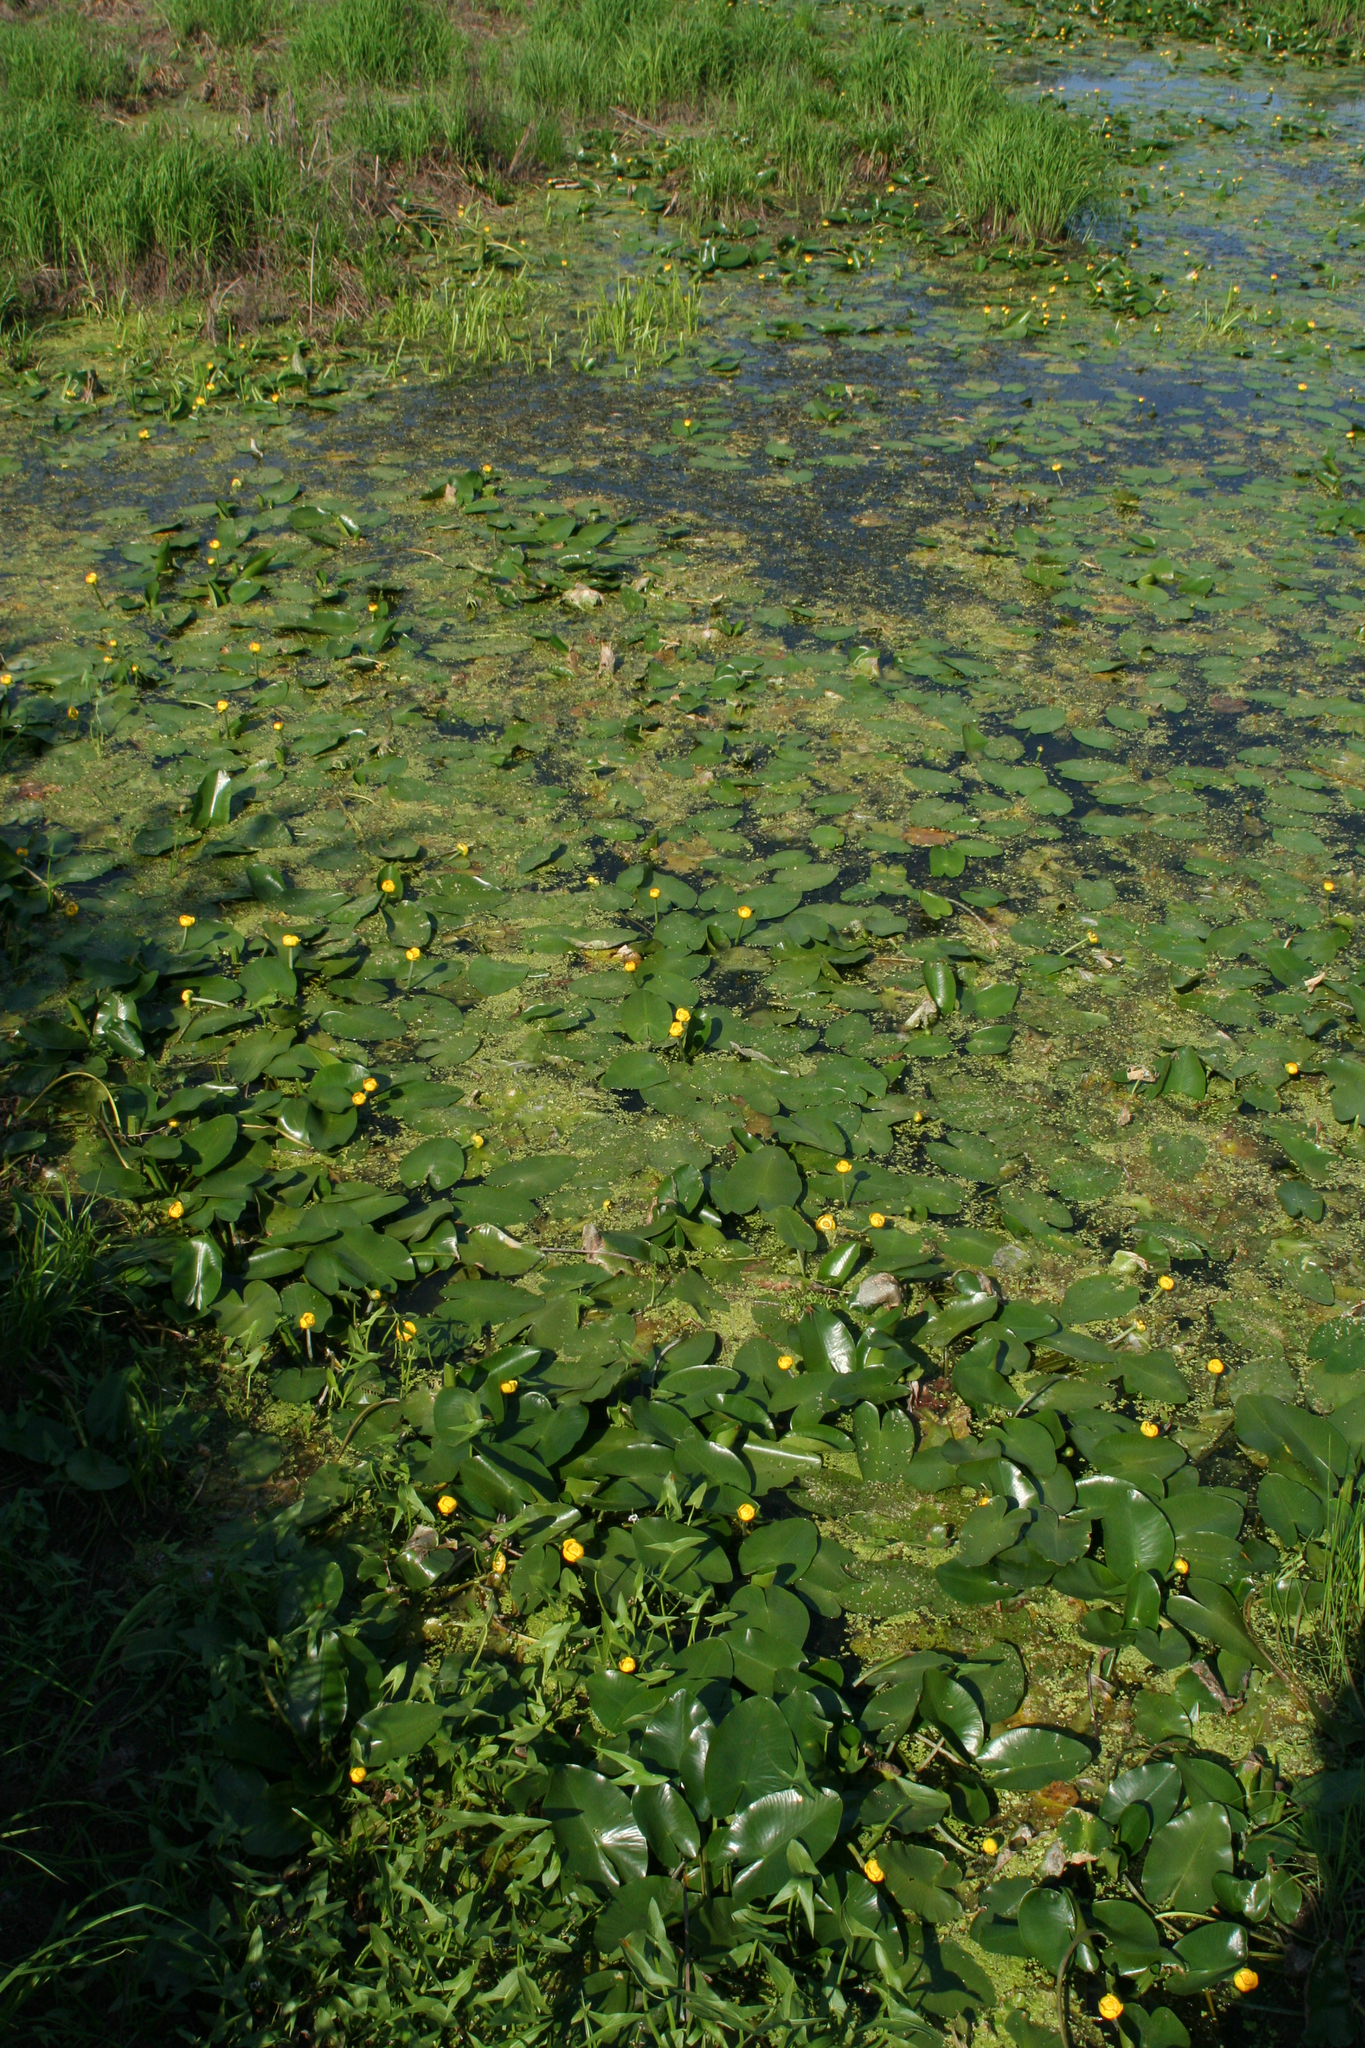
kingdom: Plantae
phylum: Tracheophyta
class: Magnoliopsida
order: Nymphaeales
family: Nymphaeaceae
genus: Nuphar
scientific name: Nuphar lutea
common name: Yellow water-lily
